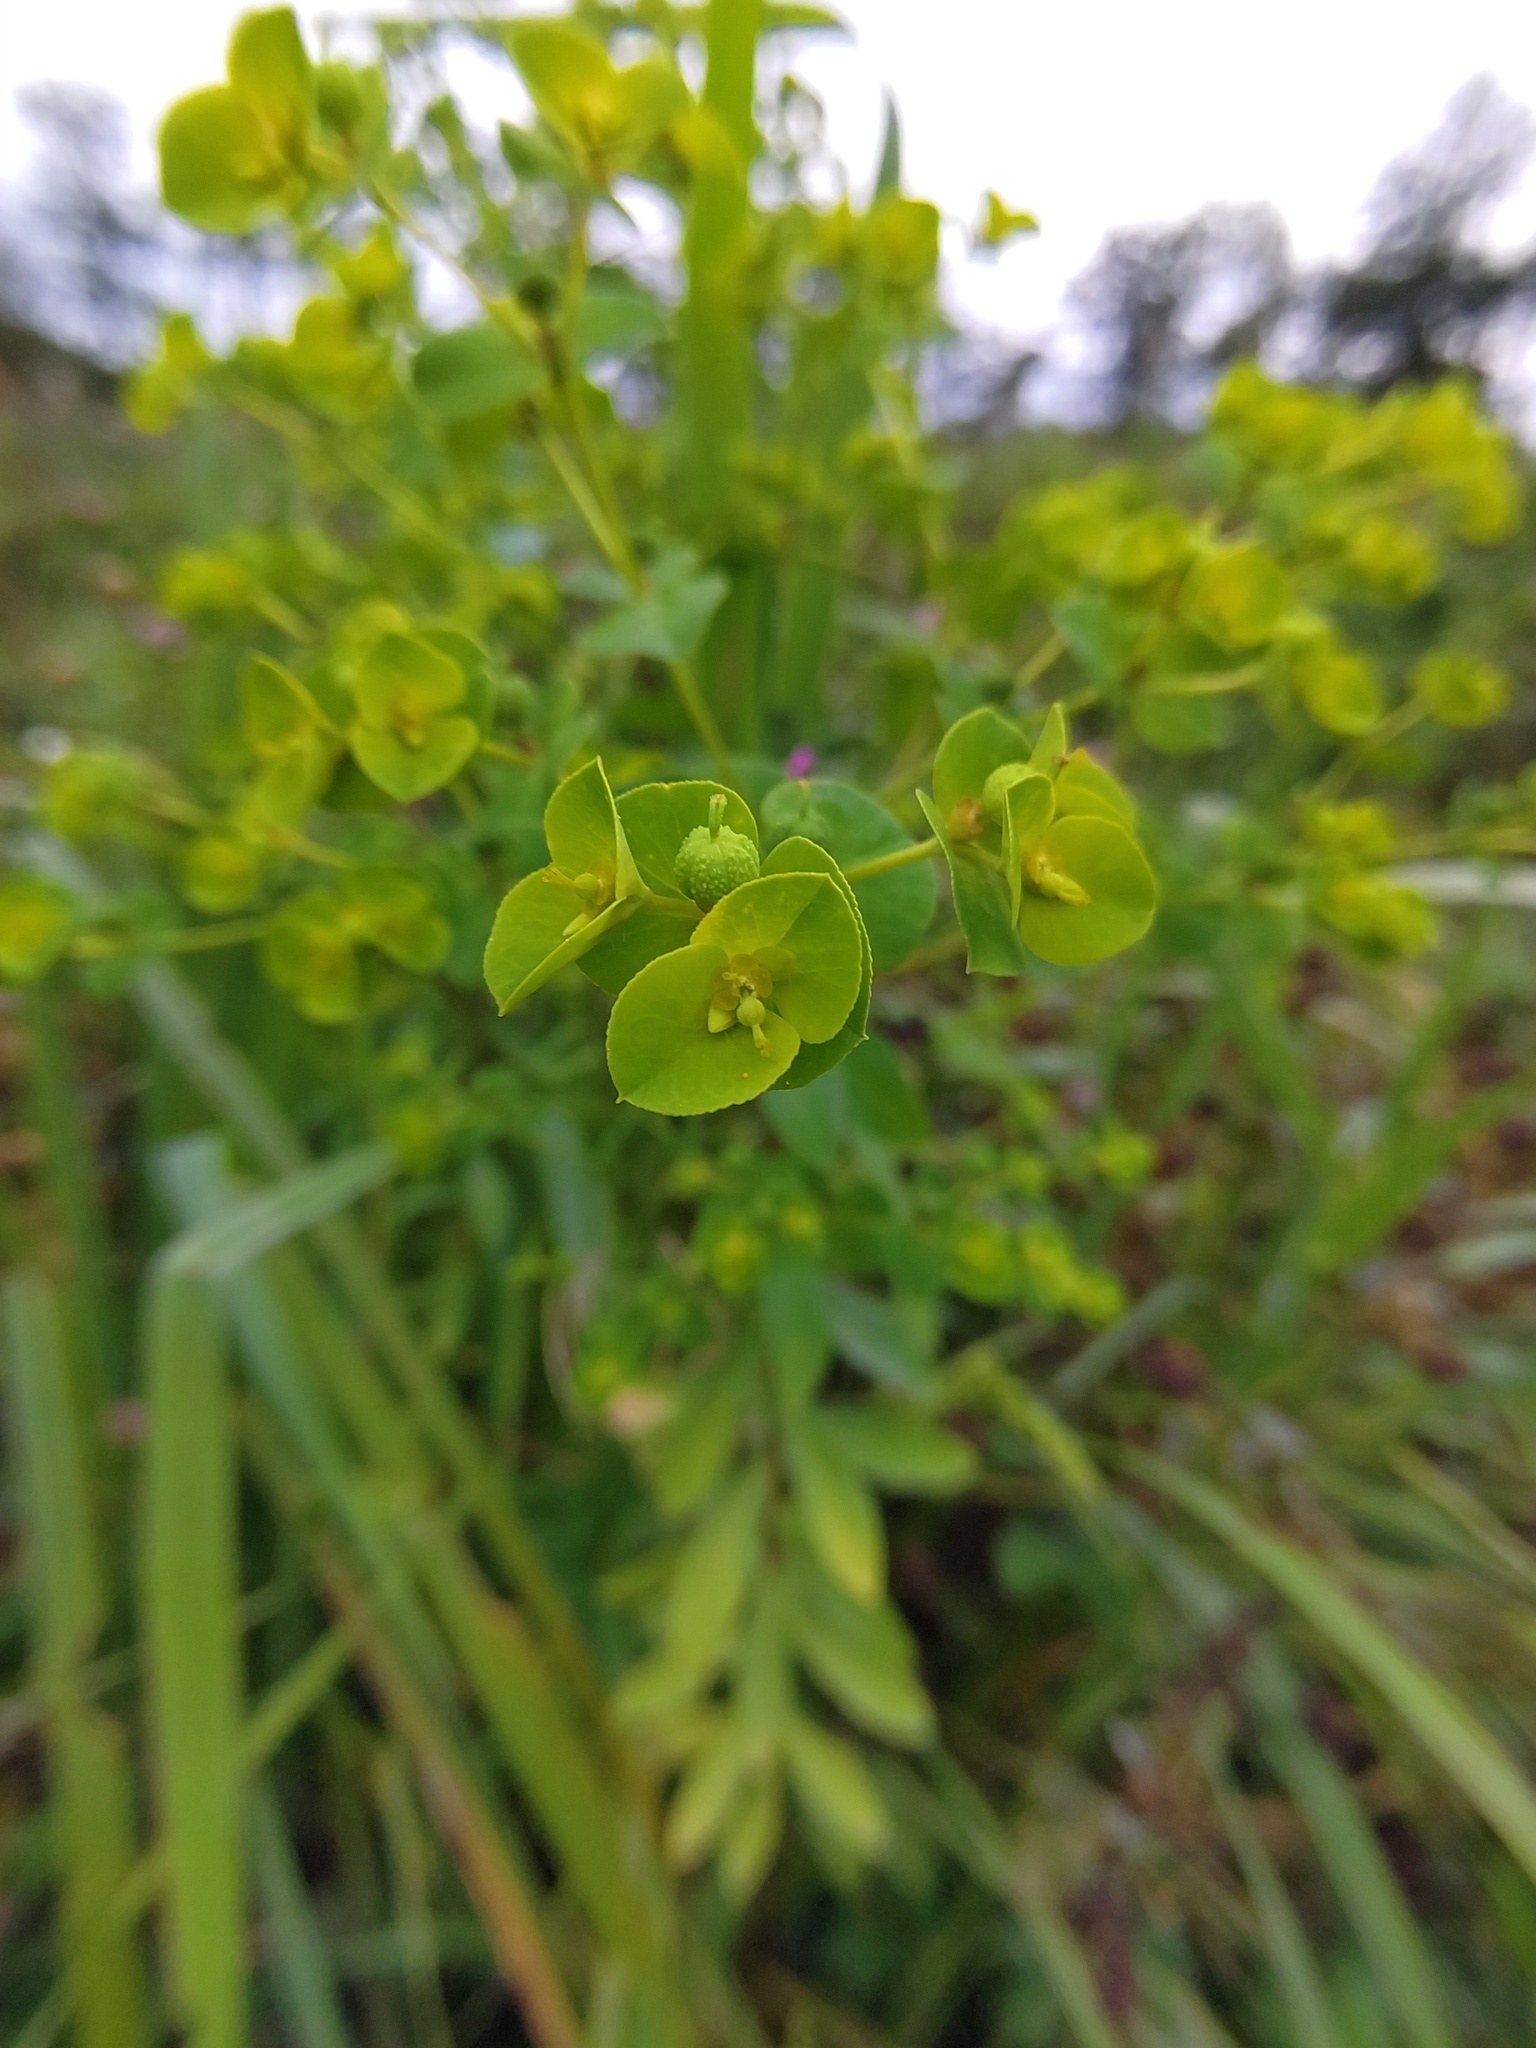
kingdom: Plantae
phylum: Tracheophyta
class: Magnoliopsida
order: Malpighiales
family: Euphorbiaceae
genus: Euphorbia
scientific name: Euphorbia platyphyllos
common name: Broad-leaved spurge
